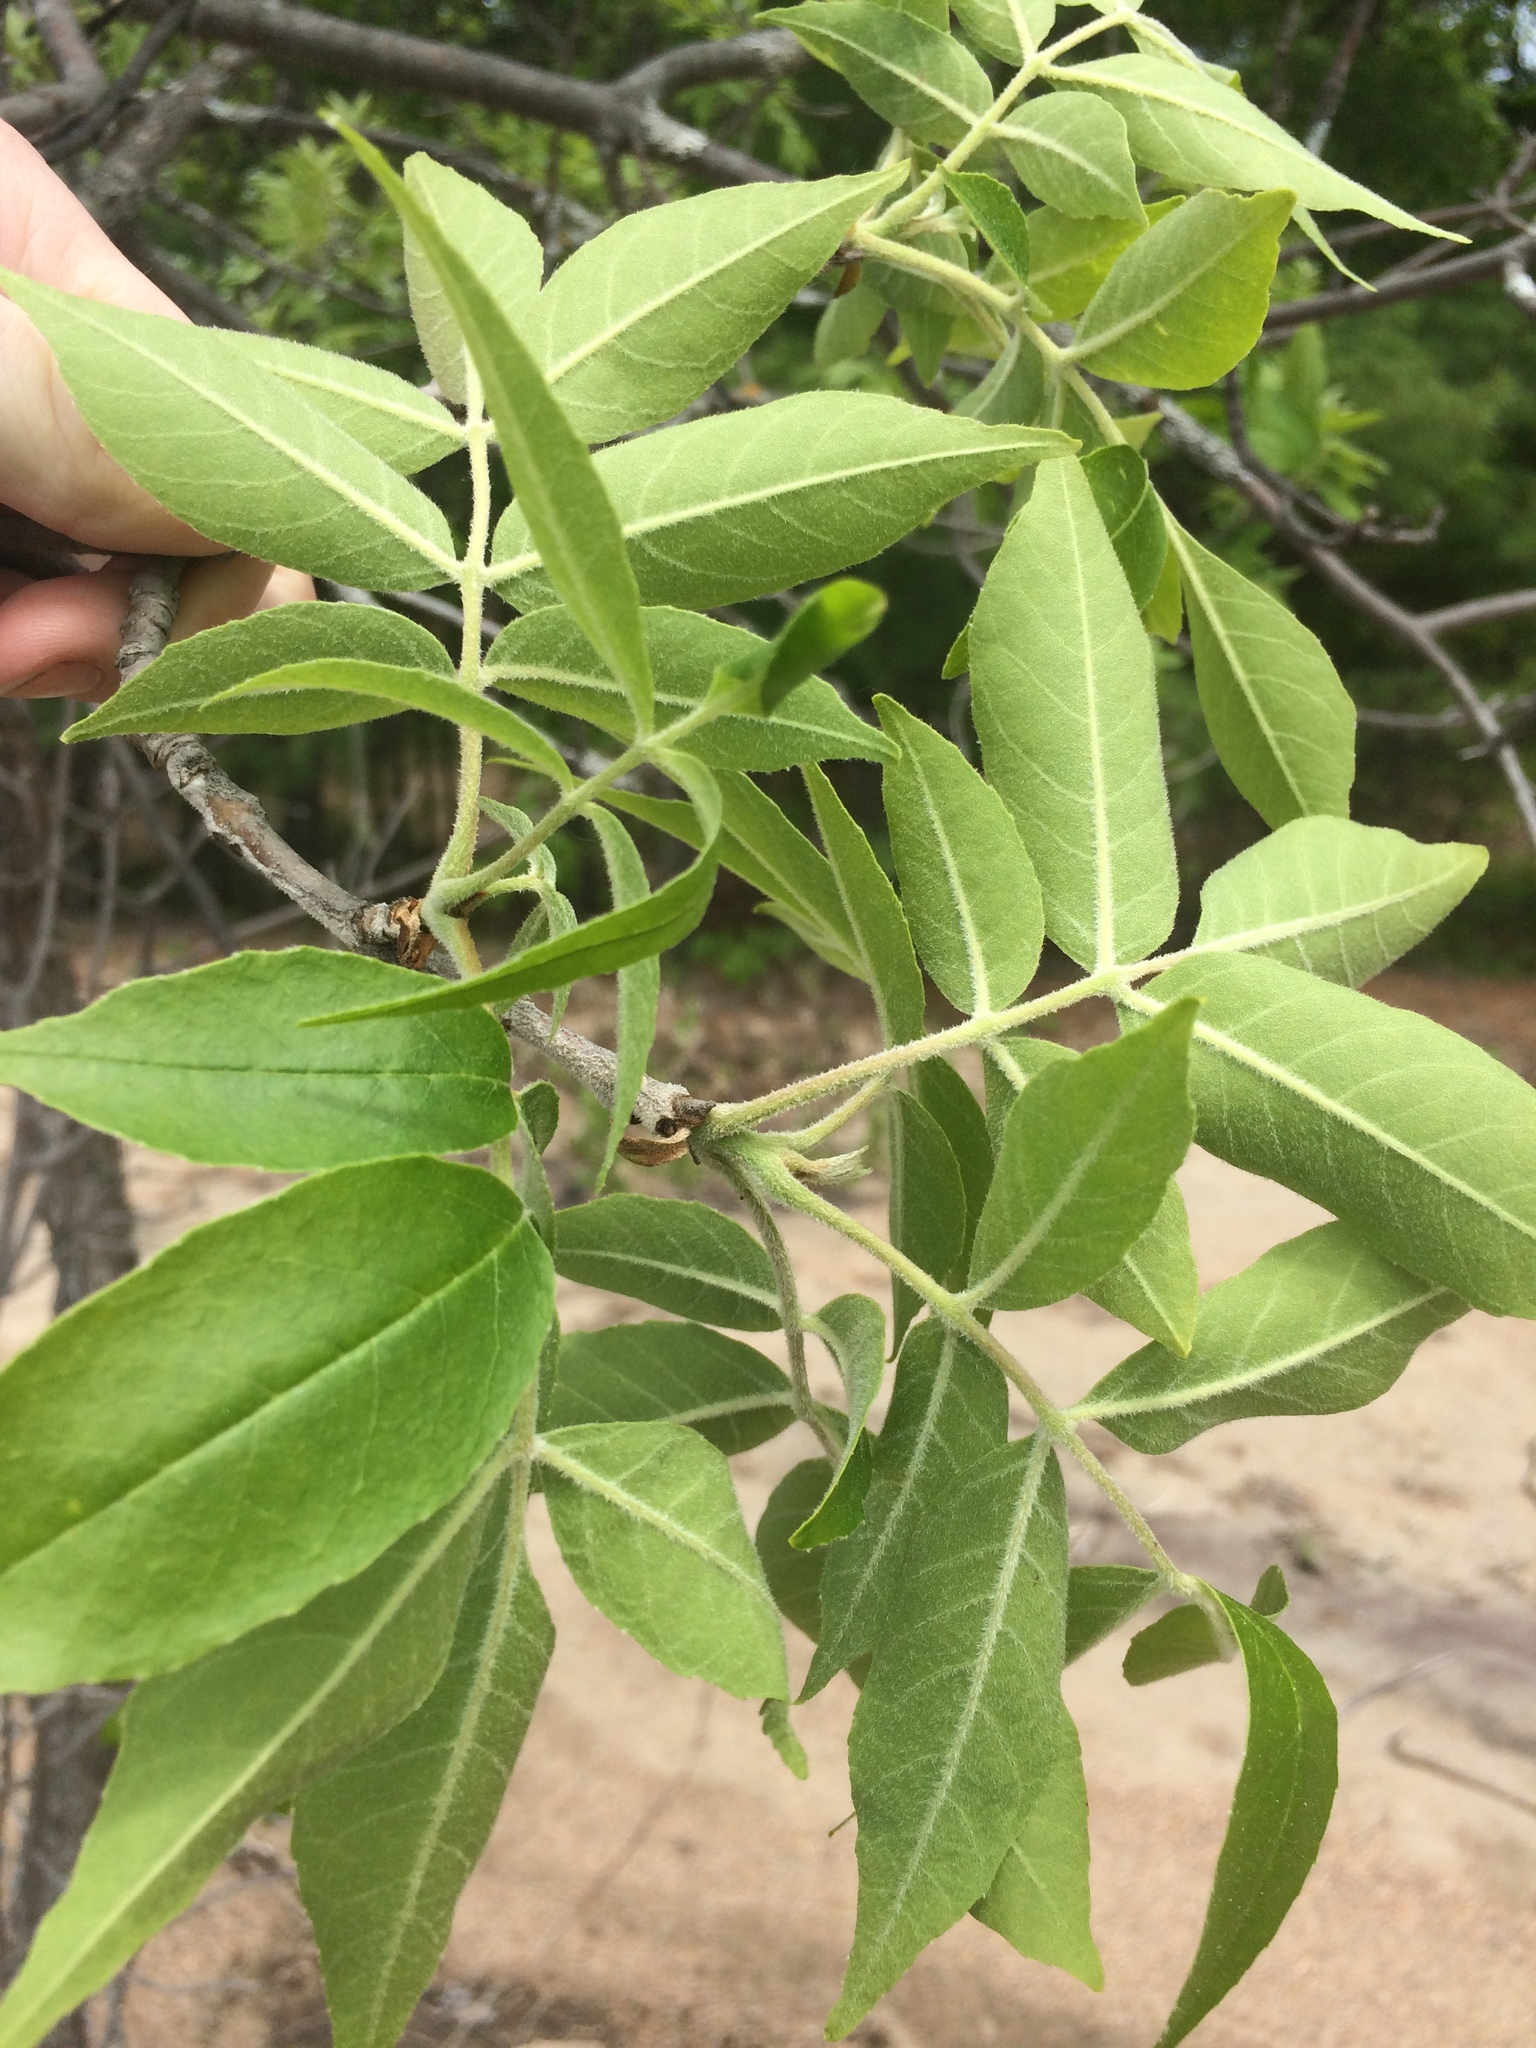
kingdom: Plantae
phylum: Tracheophyta
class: Magnoliopsida
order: Lamiales
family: Oleaceae
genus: Fraxinus
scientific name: Fraxinus pennsylvanica
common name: Green ash
